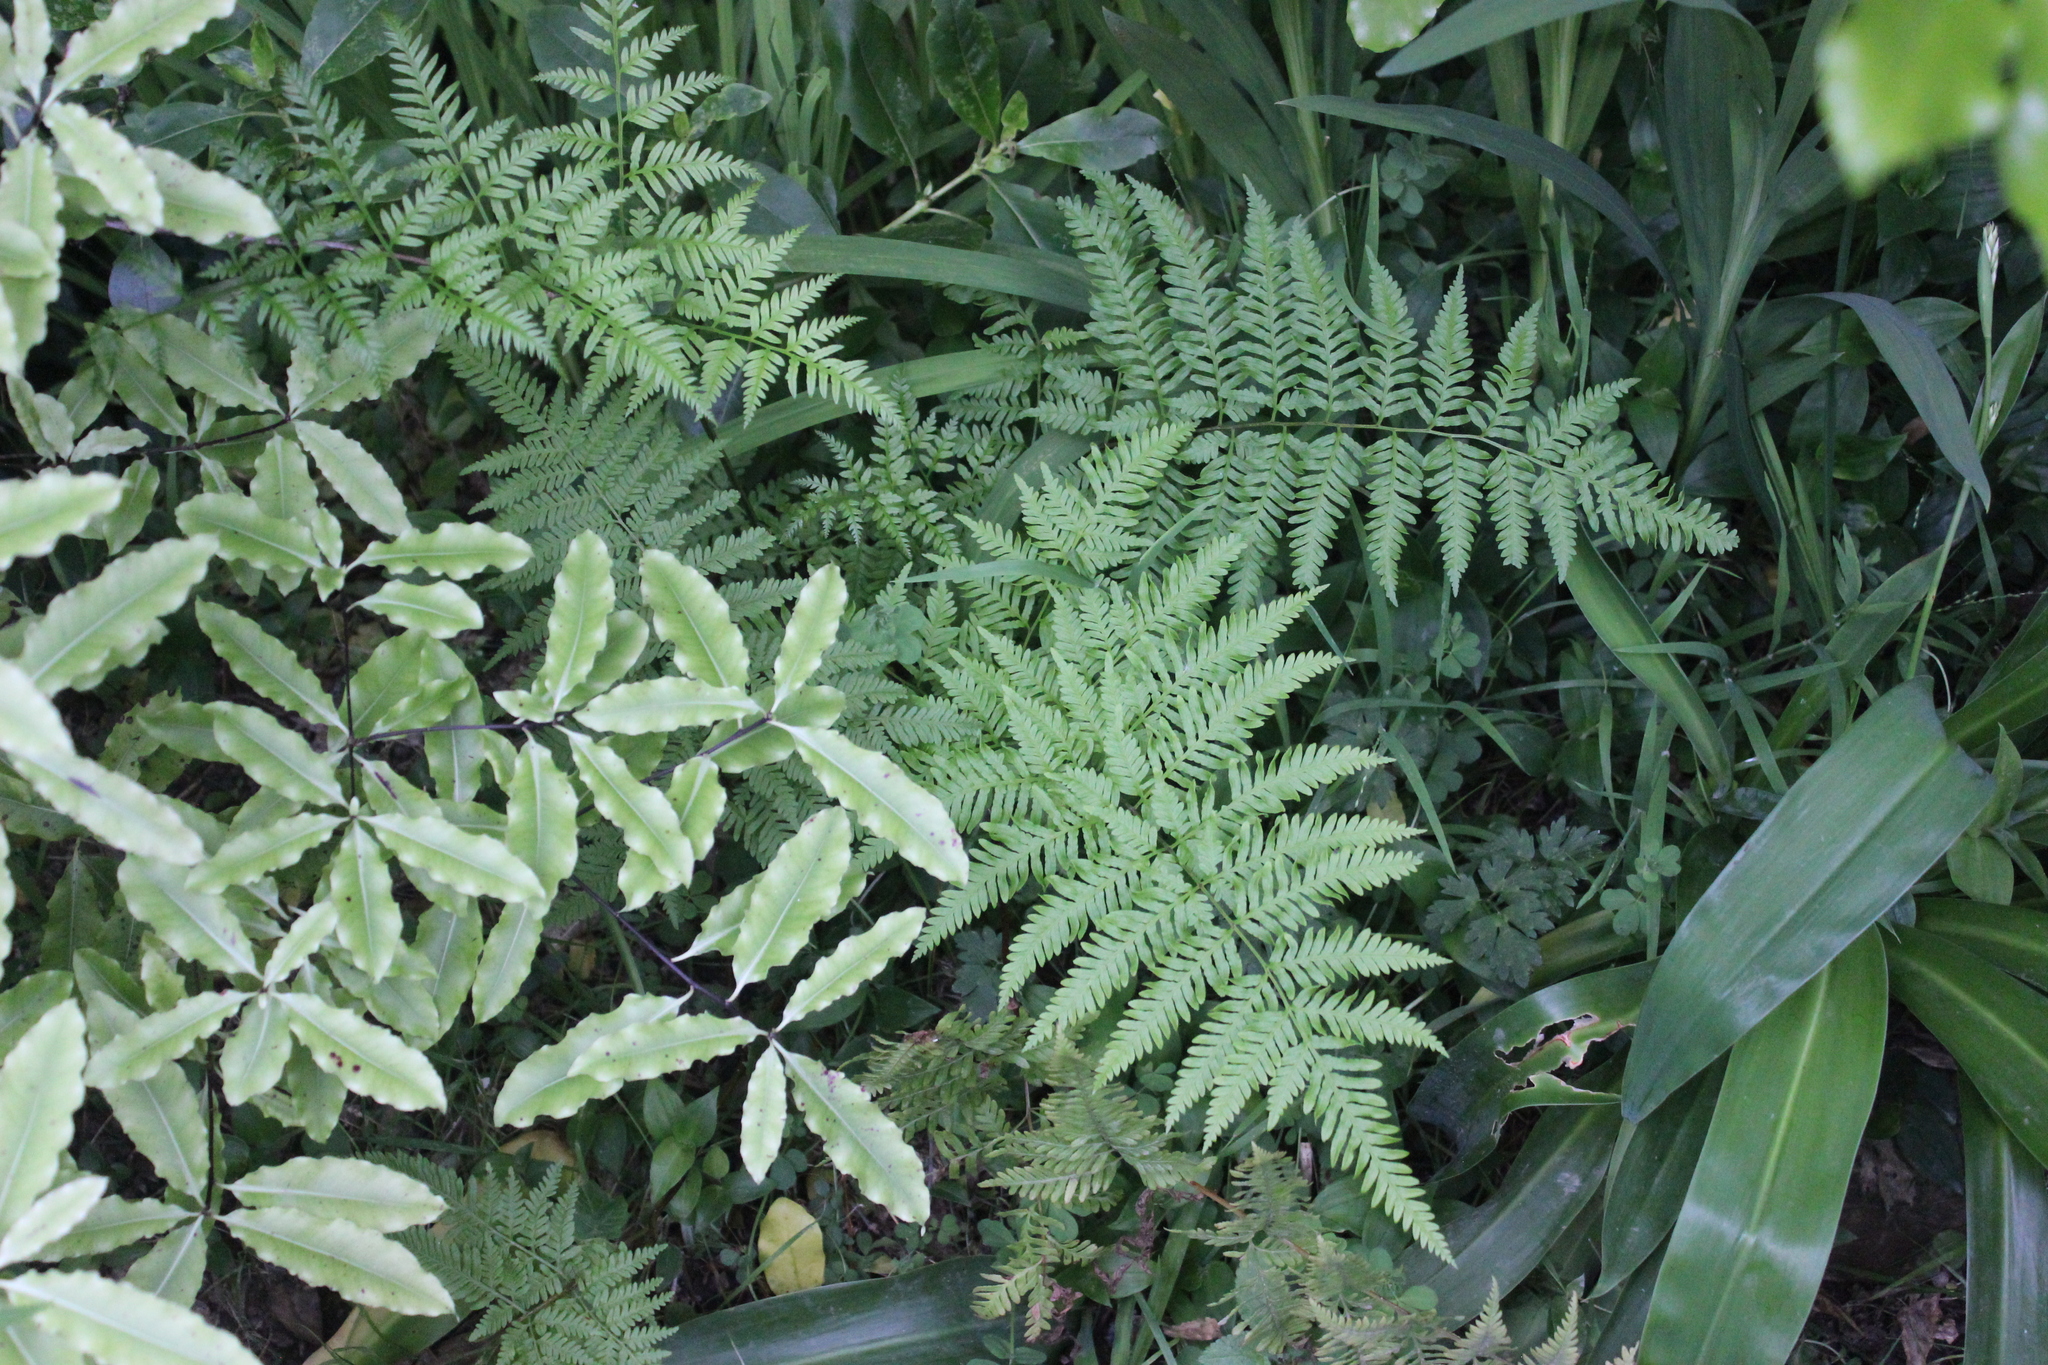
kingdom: Plantae
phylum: Tracheophyta
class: Polypodiopsida
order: Polypodiales
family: Pteridaceae
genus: Pteris
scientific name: Pteris tremula
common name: Australian brake
